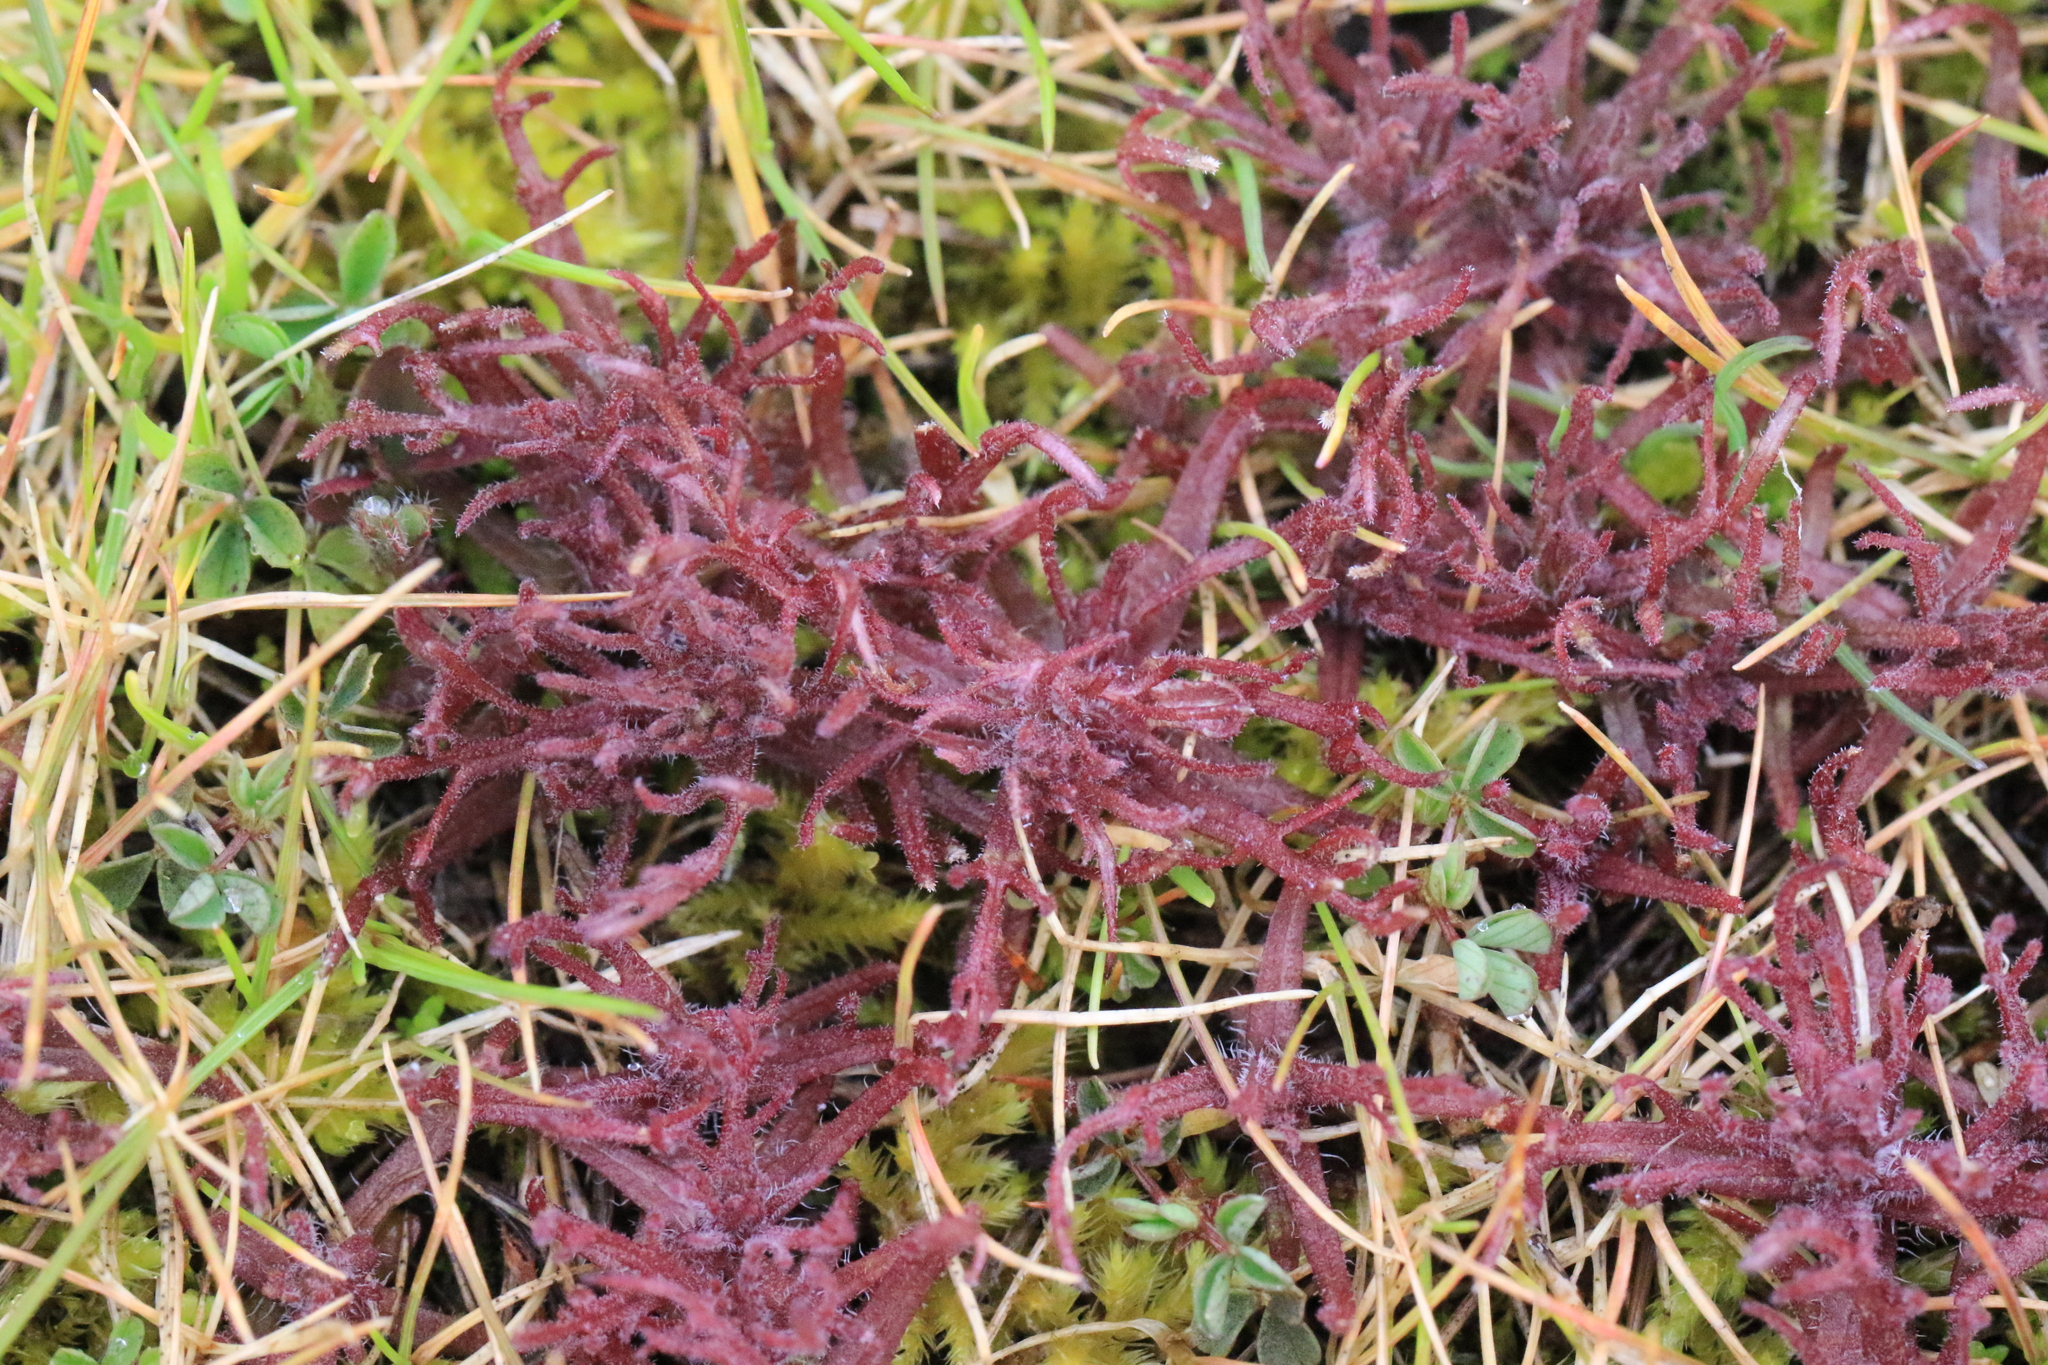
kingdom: Plantae
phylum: Tracheophyta
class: Magnoliopsida
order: Lamiales
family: Orobanchaceae
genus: Triphysaria
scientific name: Triphysaria pusilla
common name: Dwarf false owl-clover
